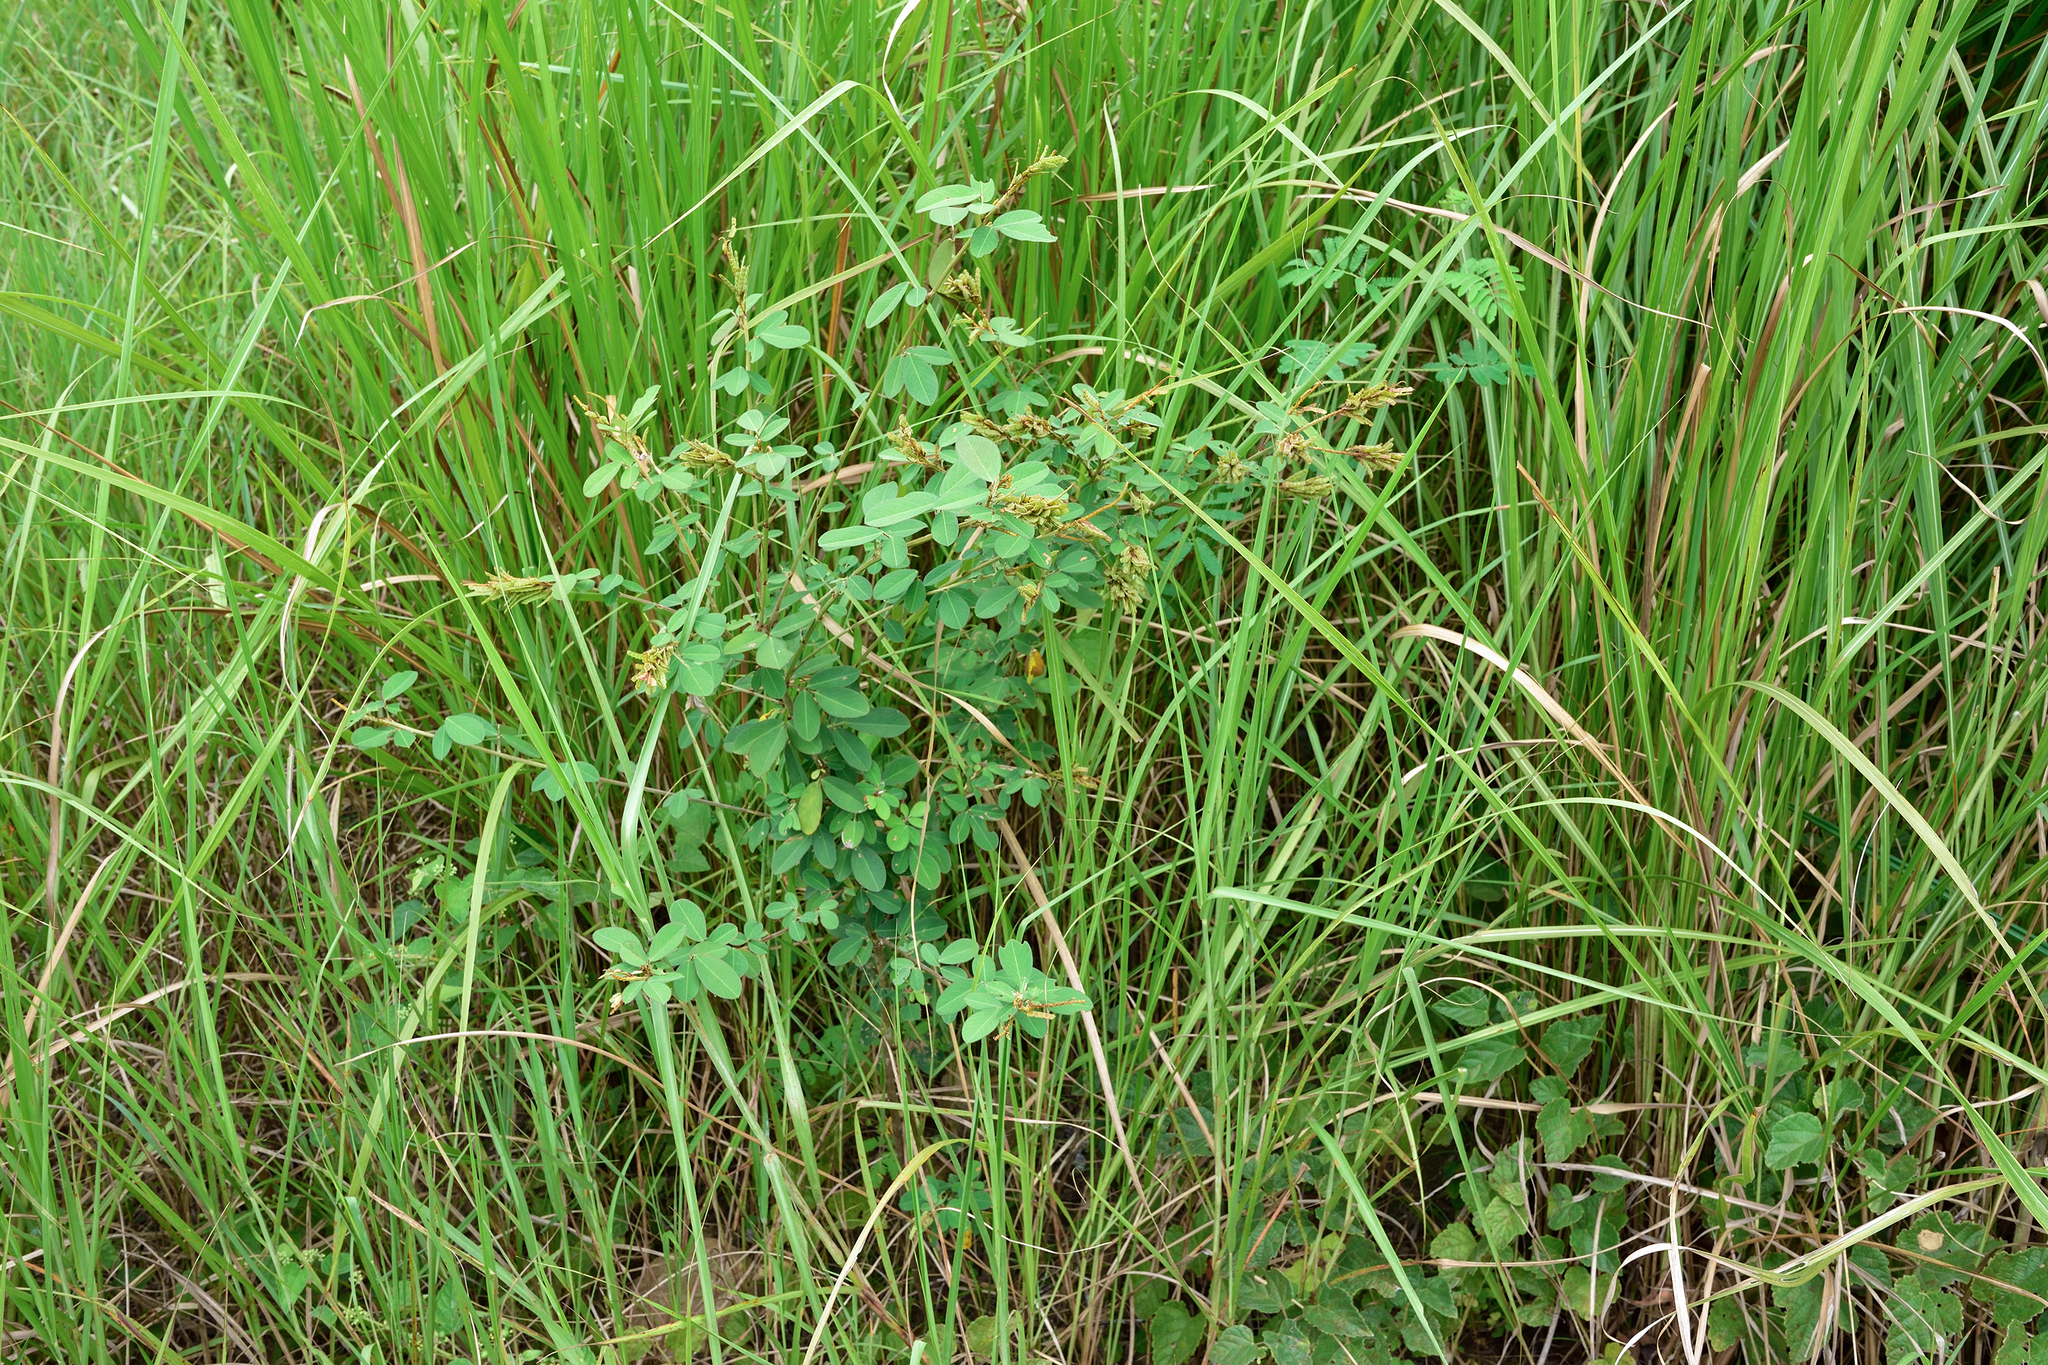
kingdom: Plantae
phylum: Tracheophyta
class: Magnoliopsida
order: Fabales
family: Fabaceae
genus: Grona
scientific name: Grona heterocarpos
